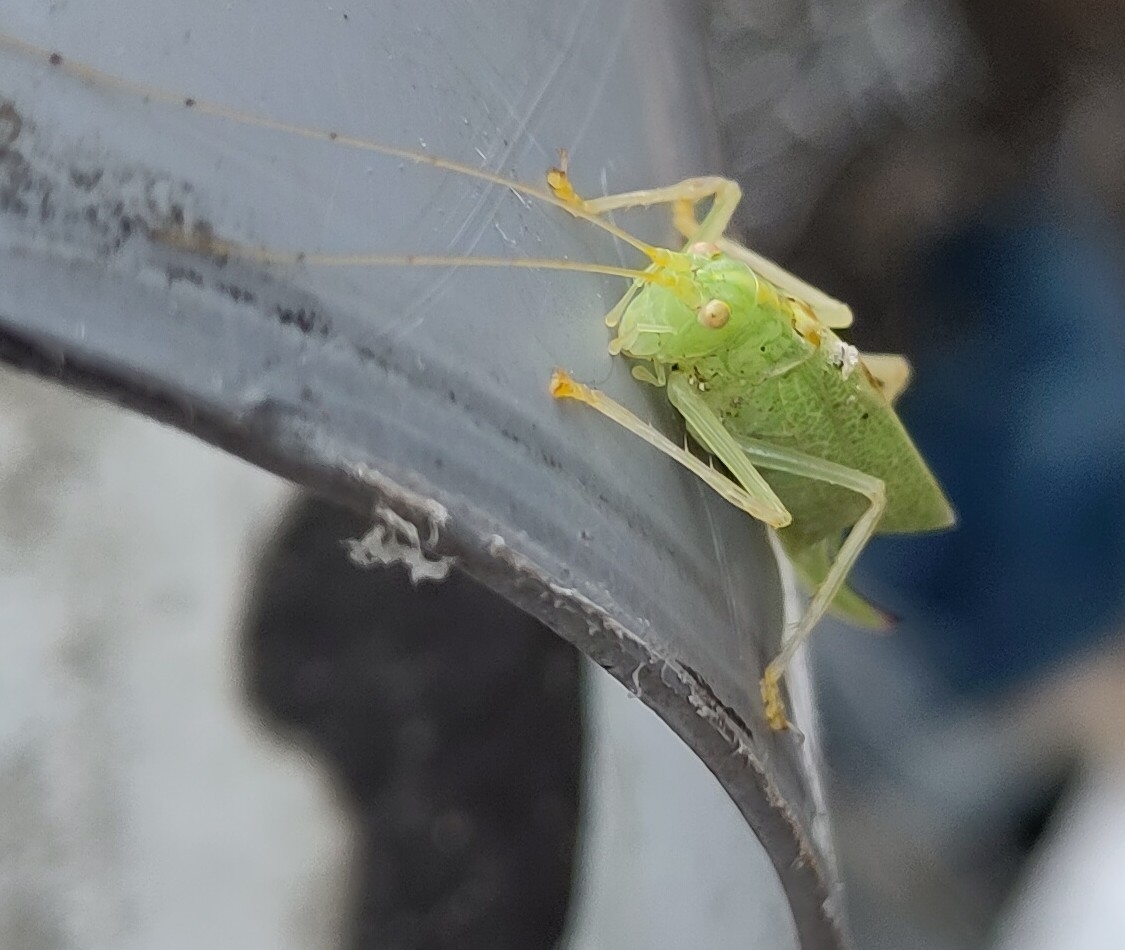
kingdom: Animalia
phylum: Arthropoda
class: Insecta
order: Orthoptera
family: Tettigoniidae
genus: Meconema
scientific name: Meconema thalassinum
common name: Oak bush-cricket
